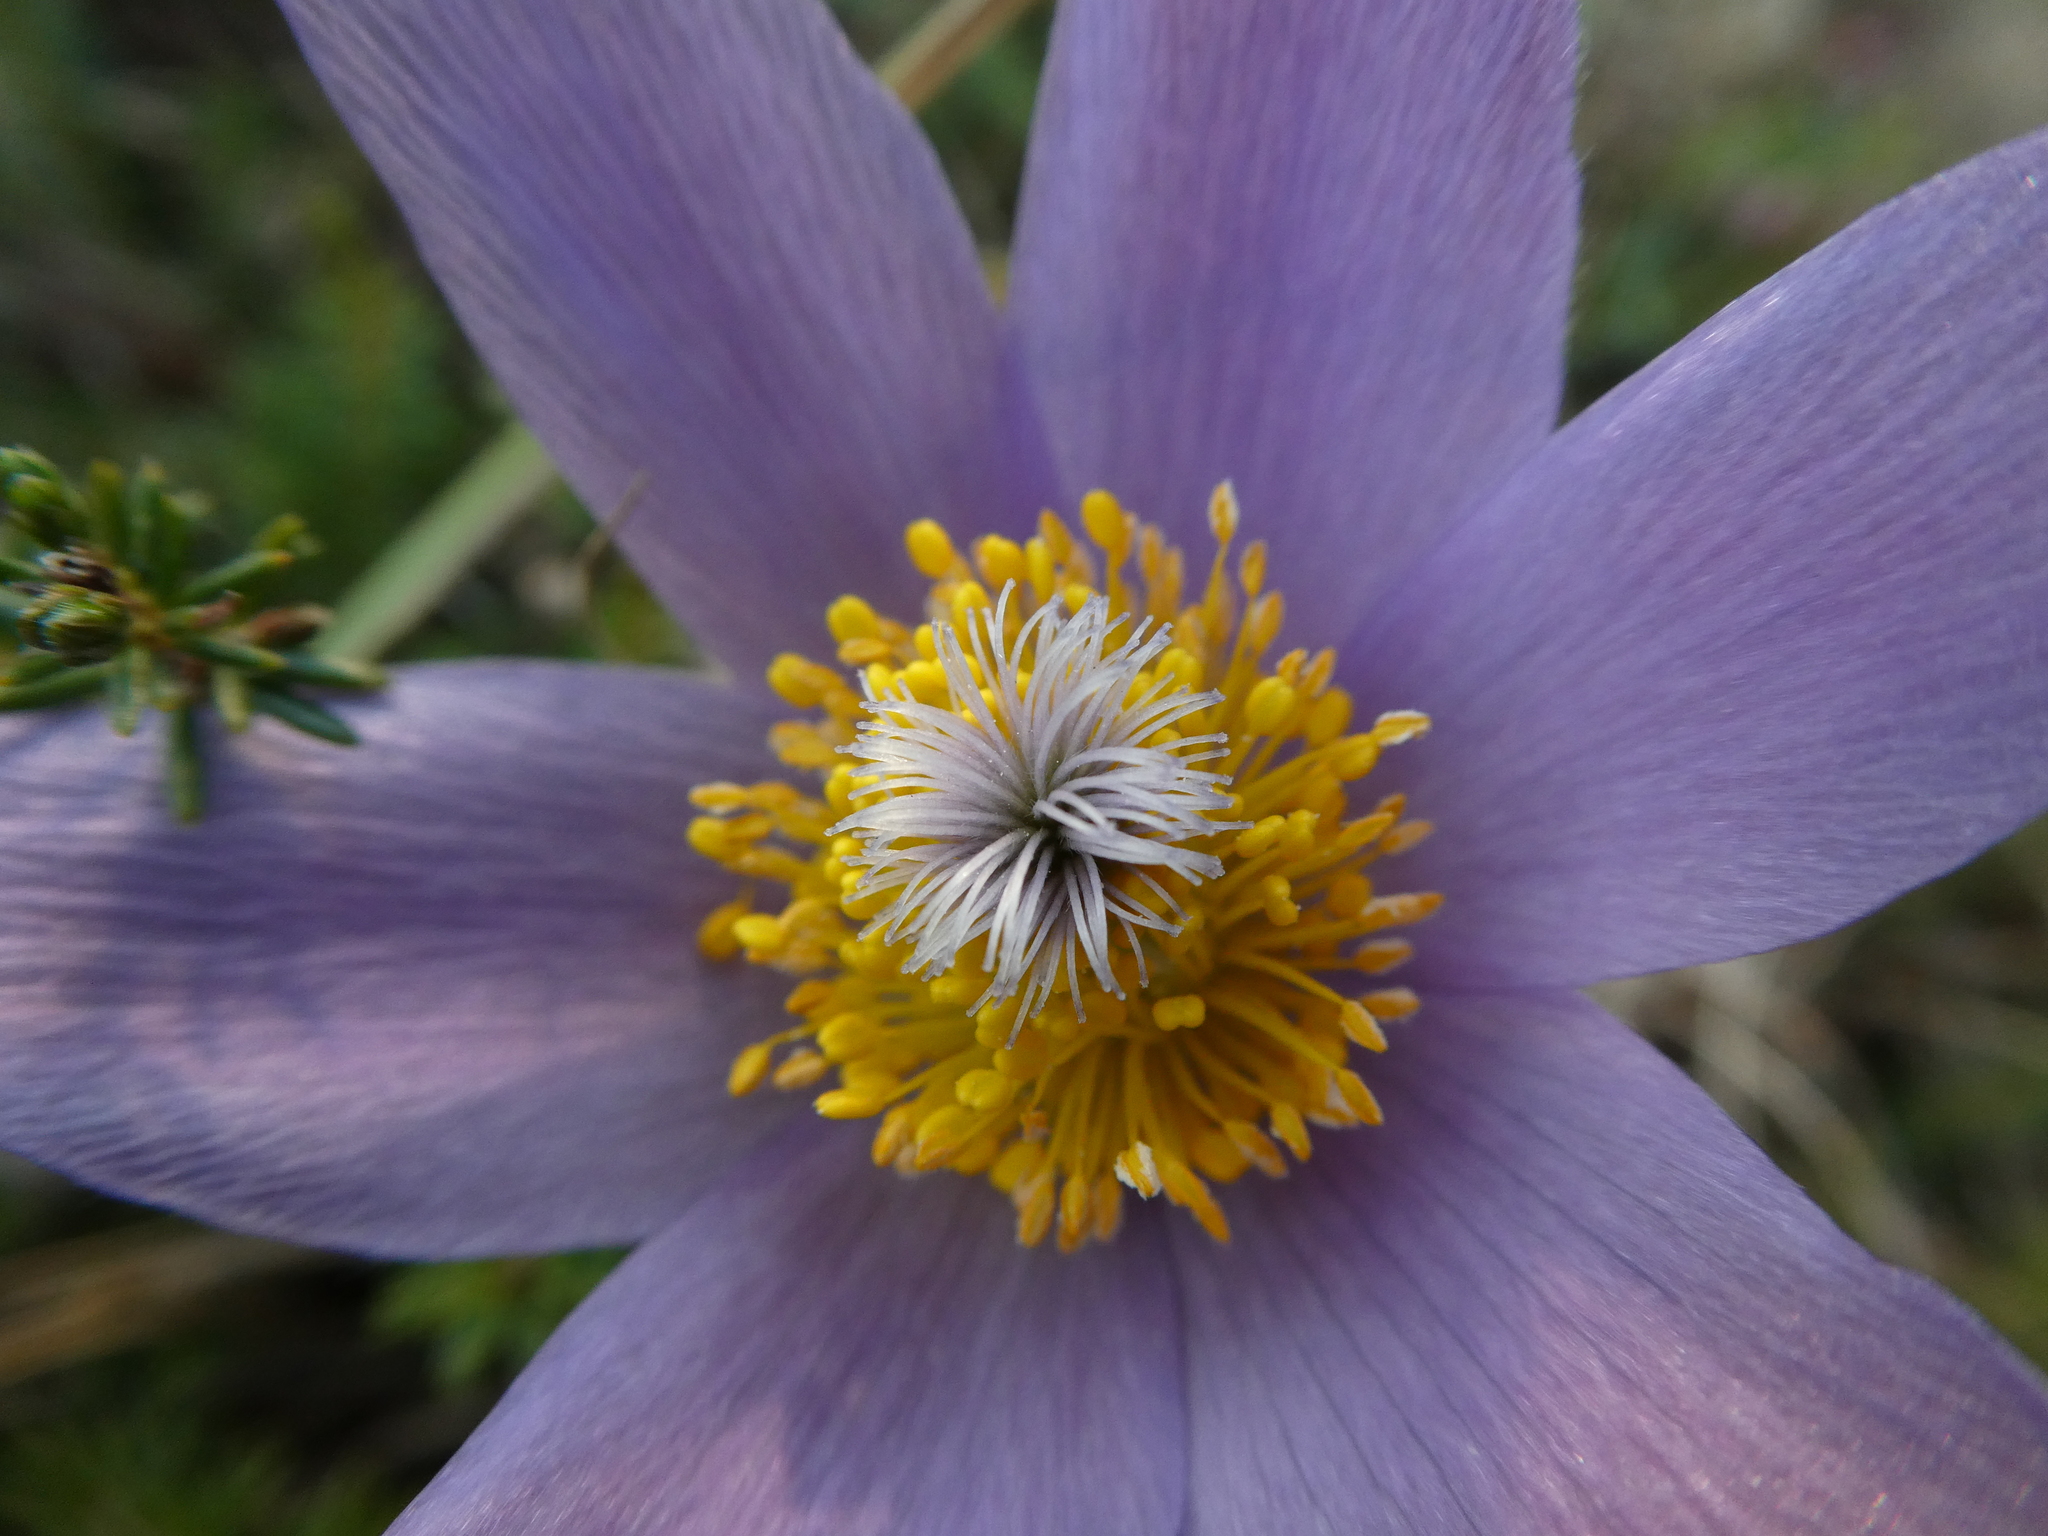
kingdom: Plantae
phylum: Tracheophyta
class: Magnoliopsida
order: Ranunculales
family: Ranunculaceae
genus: Pulsatilla
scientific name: Pulsatilla grandis
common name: Greater pasque flower
